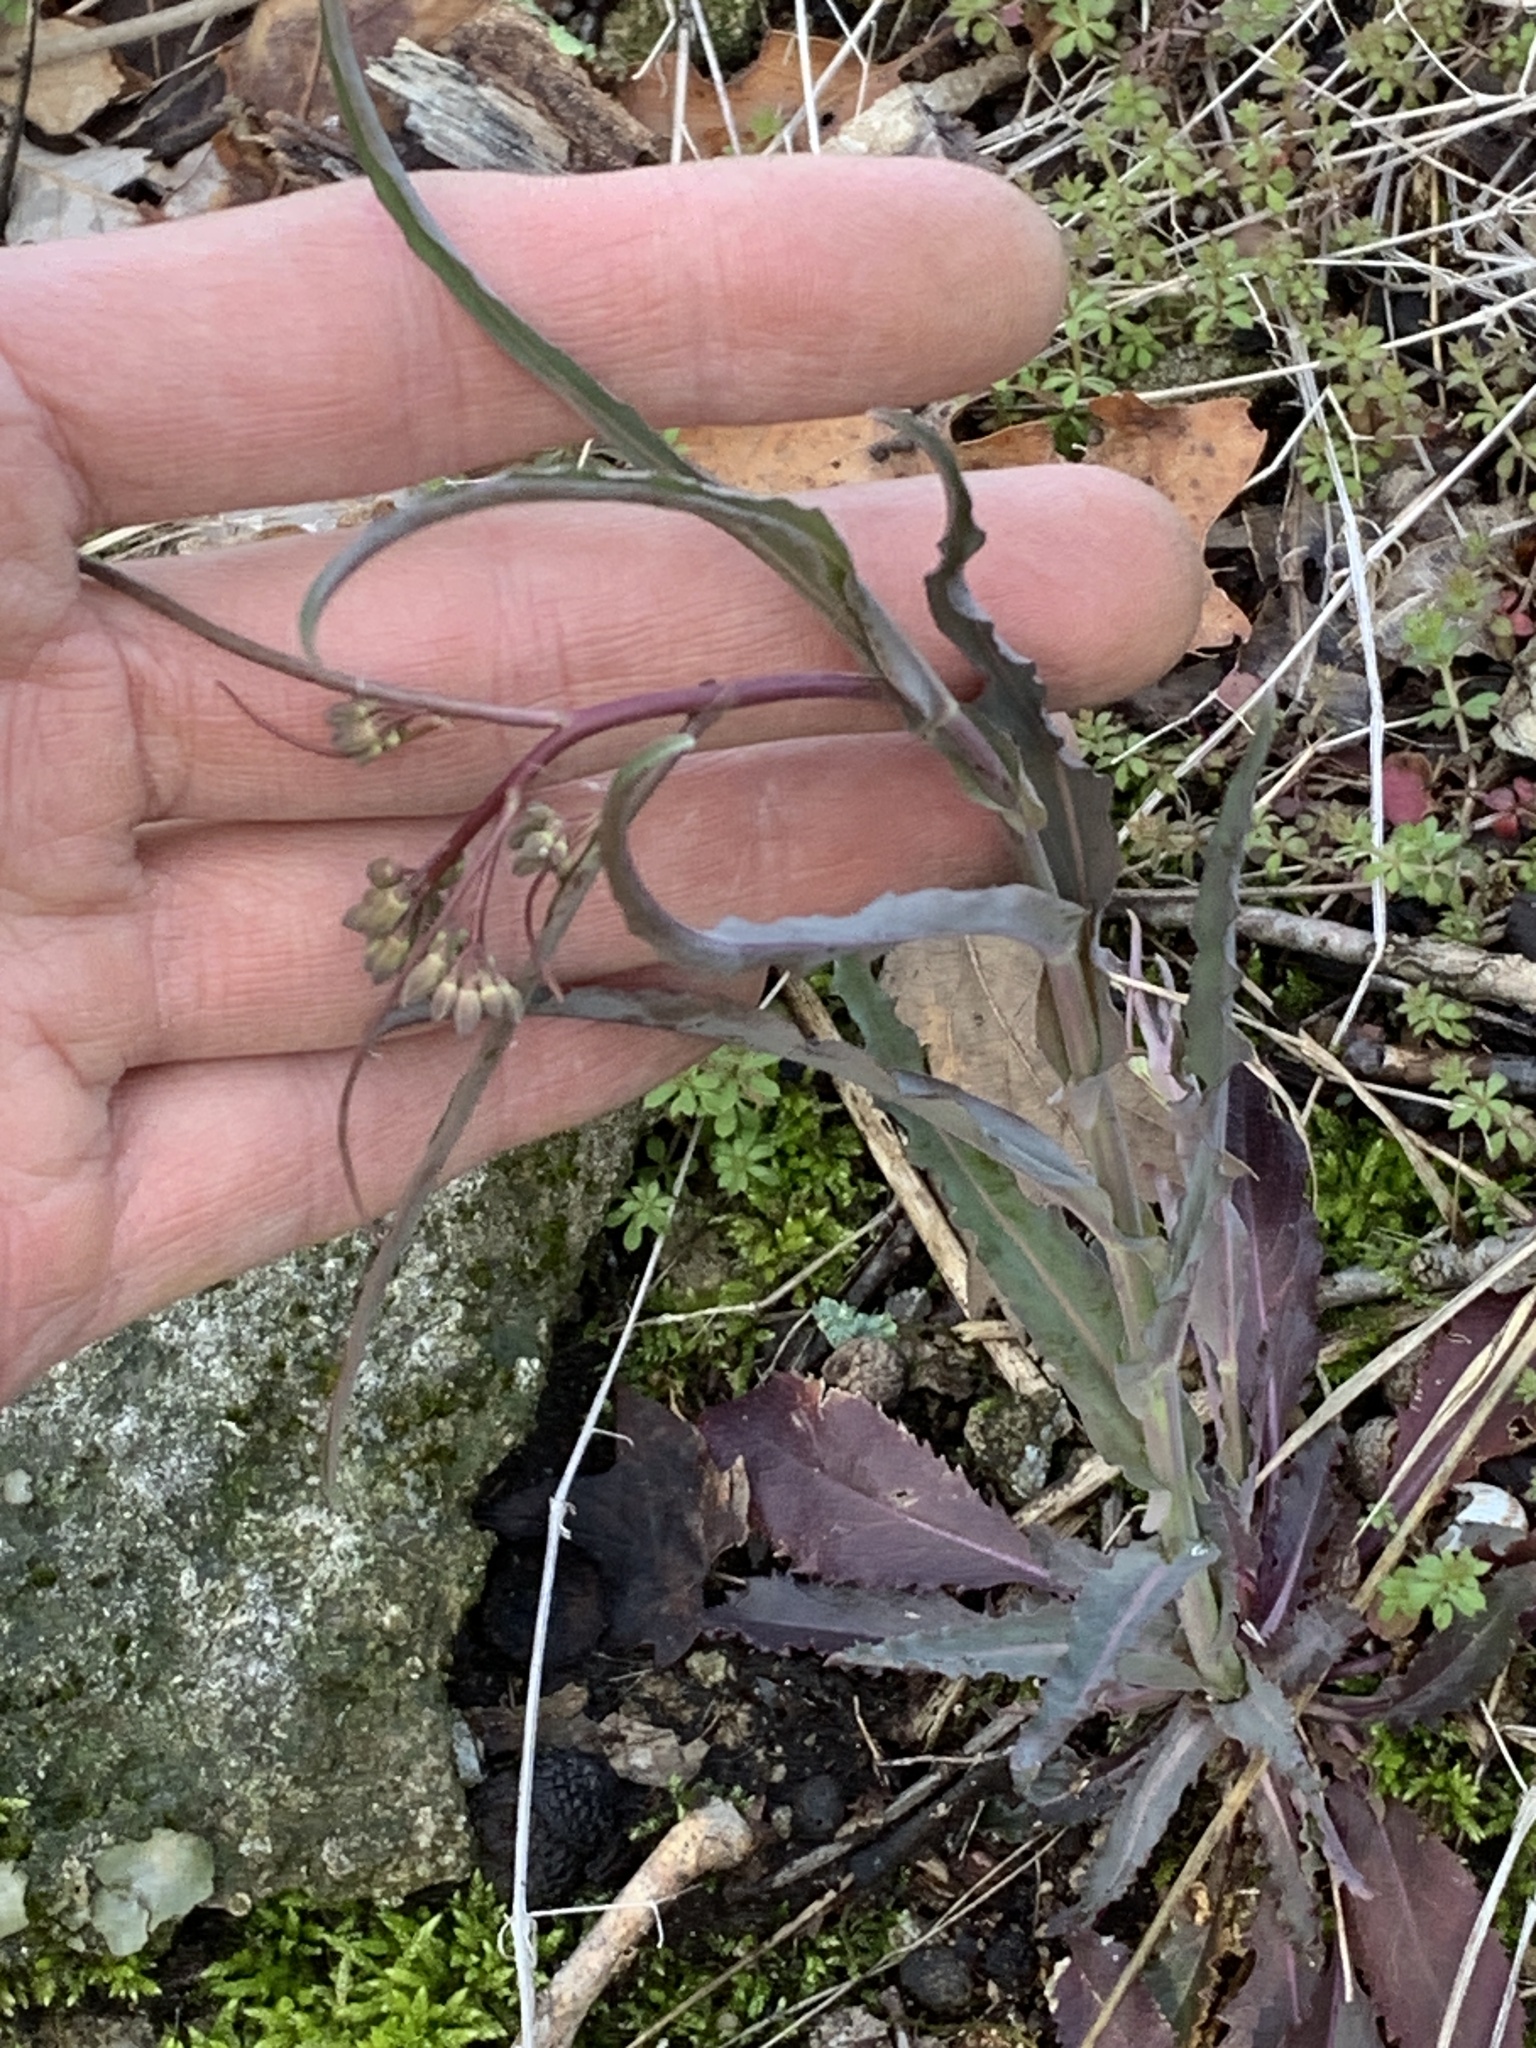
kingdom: Plantae
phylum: Tracheophyta
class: Magnoliopsida
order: Brassicales
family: Brassicaceae
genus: Borodinia
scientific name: Borodinia laevigata
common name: Smooth rockcress
